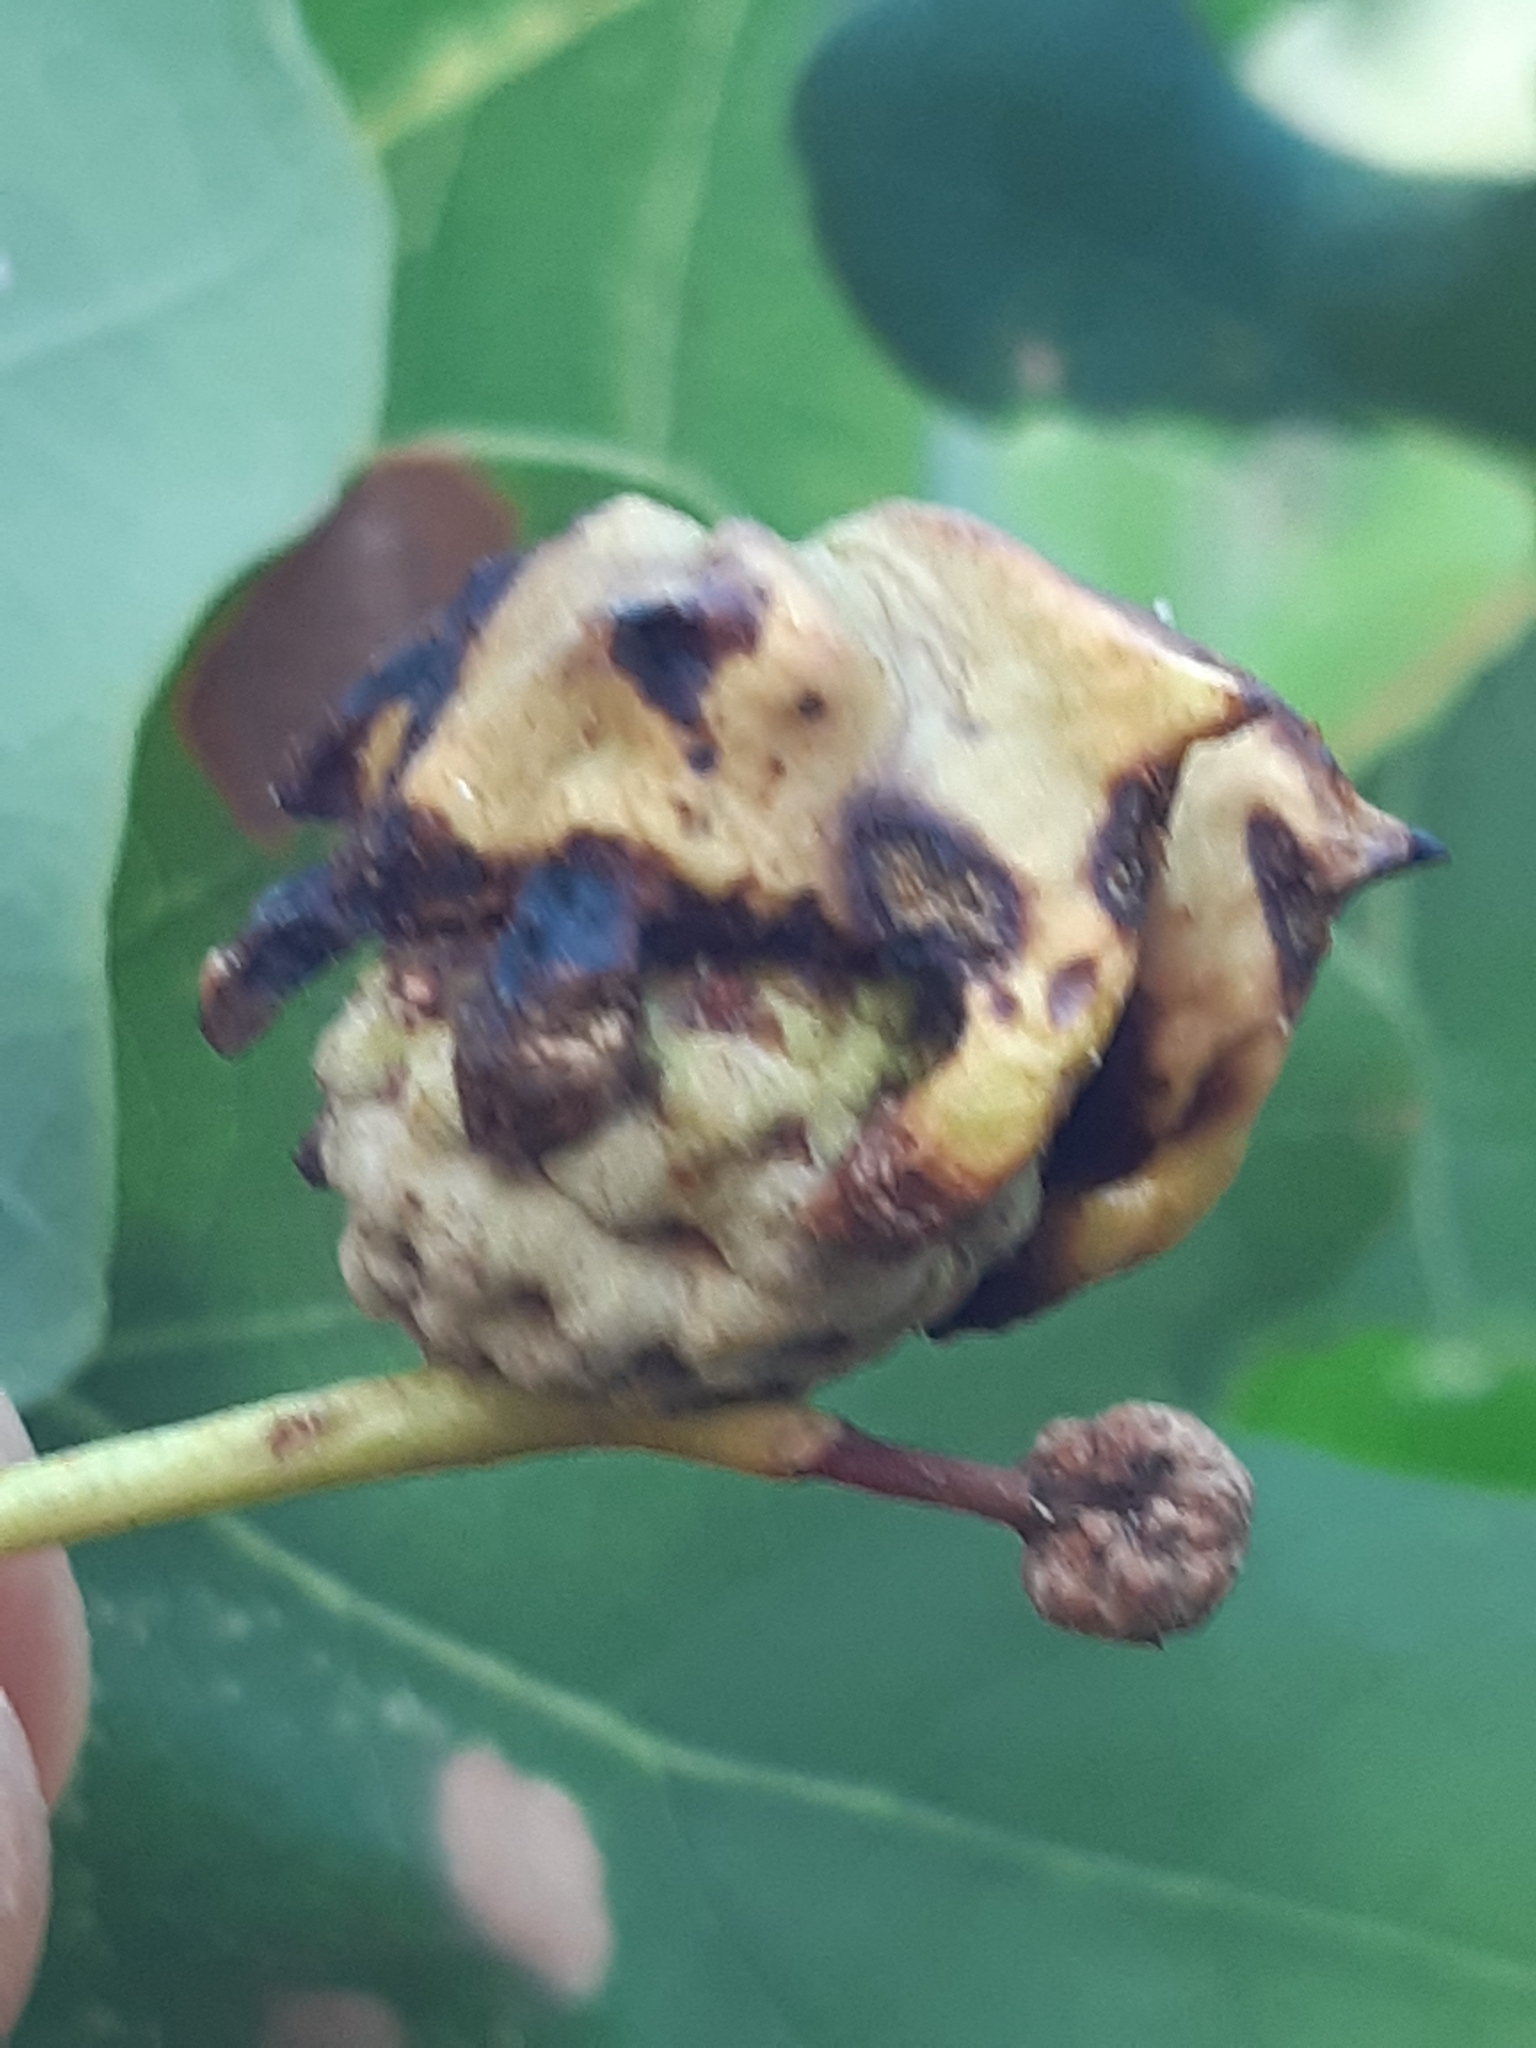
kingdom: Animalia
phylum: Arthropoda
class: Insecta
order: Hymenoptera
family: Cynipidae
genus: Andricus
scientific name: Andricus quercuscalicis
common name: Knopper gall
